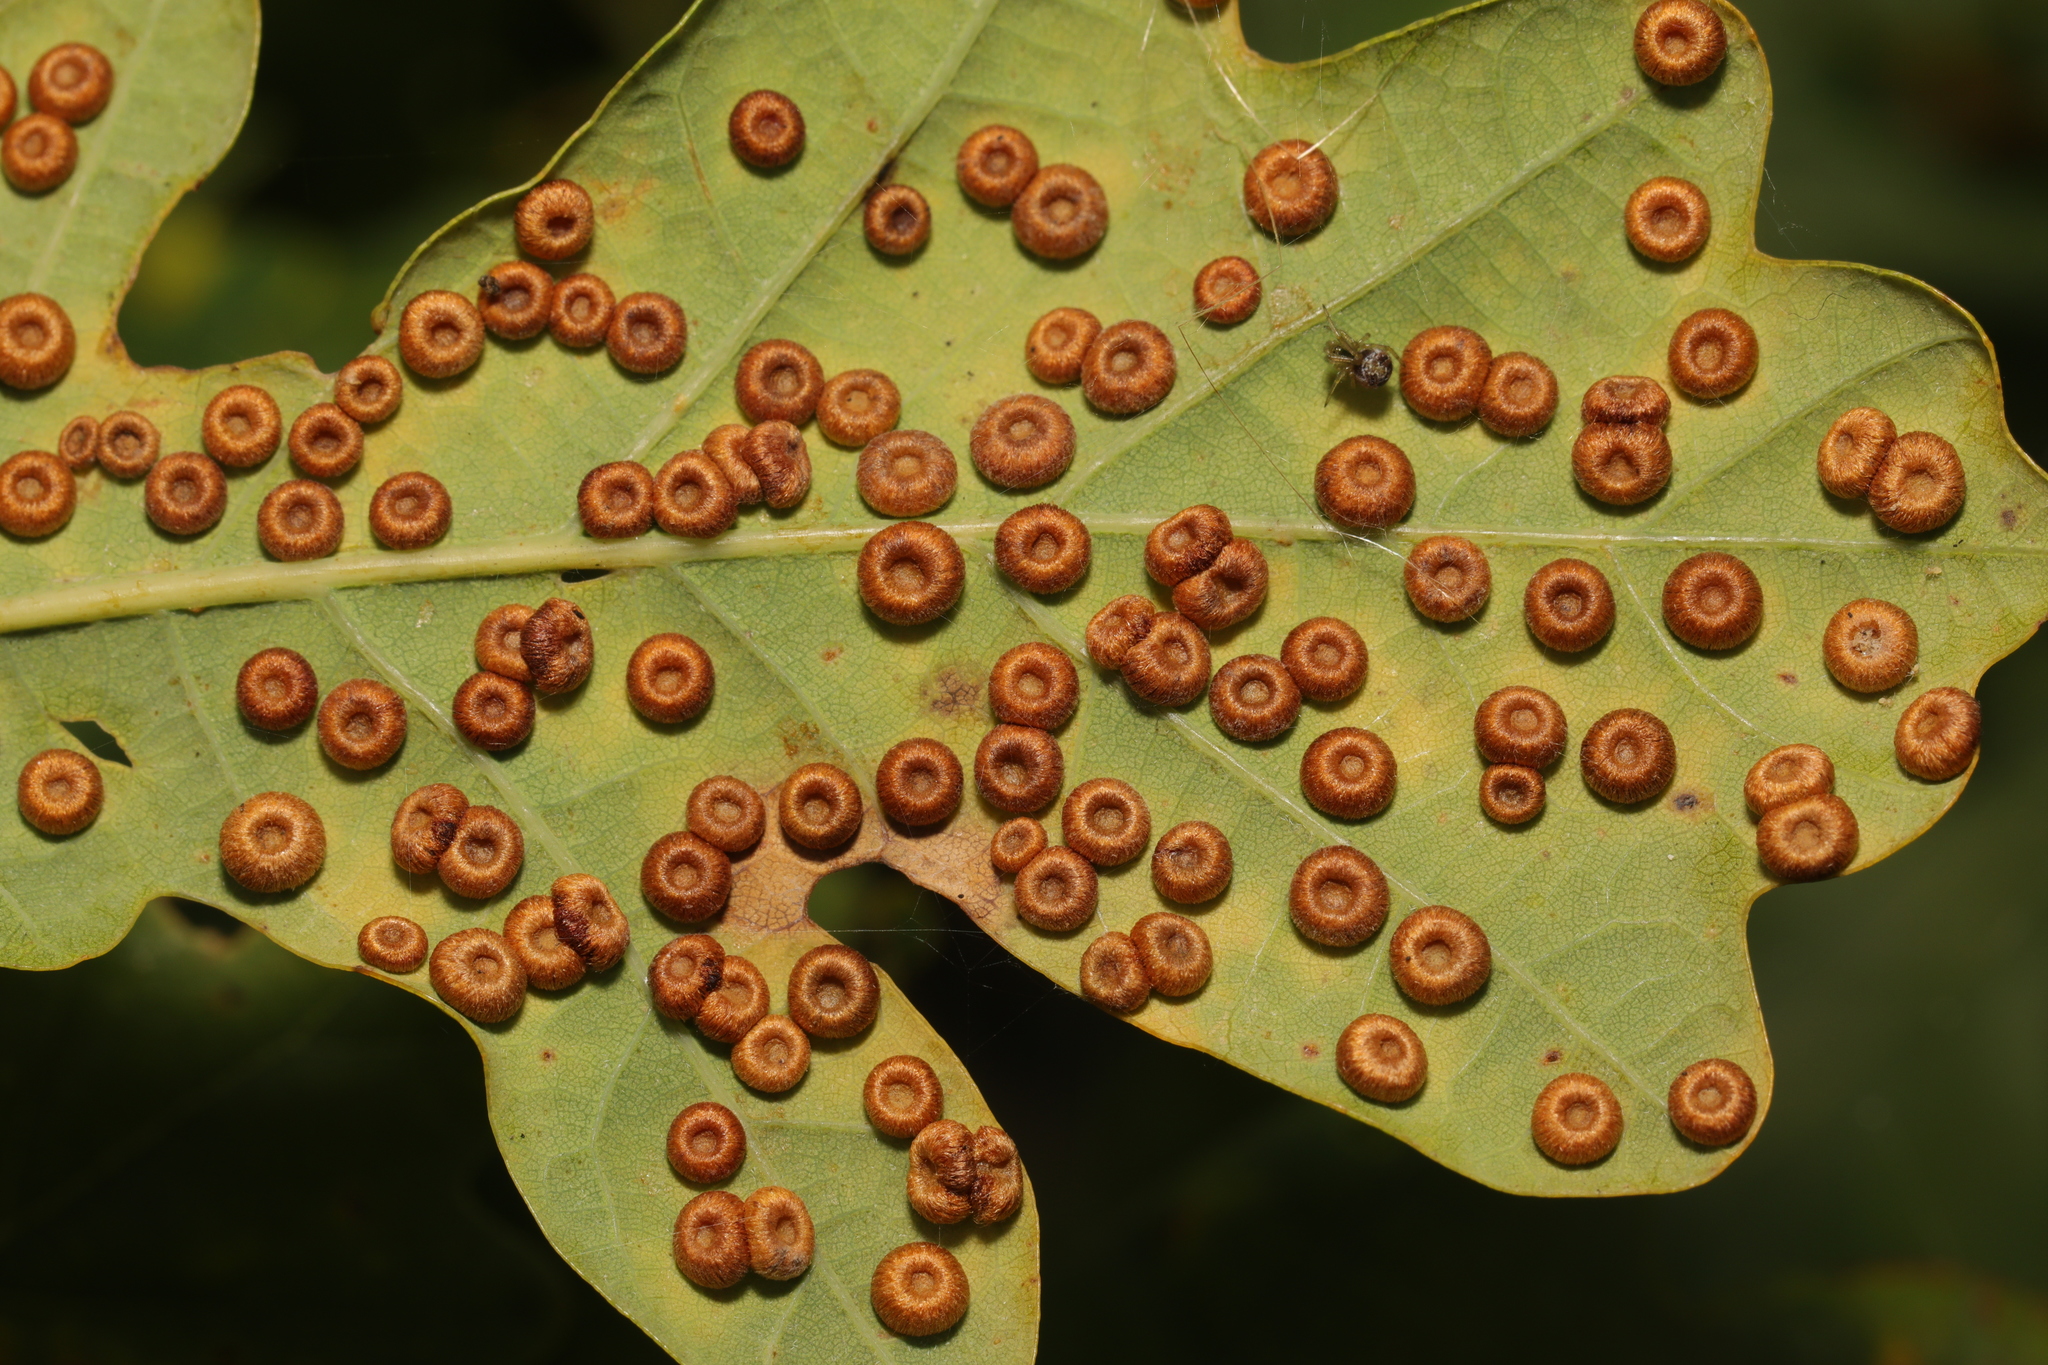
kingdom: Animalia
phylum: Arthropoda
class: Insecta
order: Hymenoptera
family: Cynipidae
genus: Neuroterus
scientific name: Neuroterus numismalis
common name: Silk-button spangle gall
